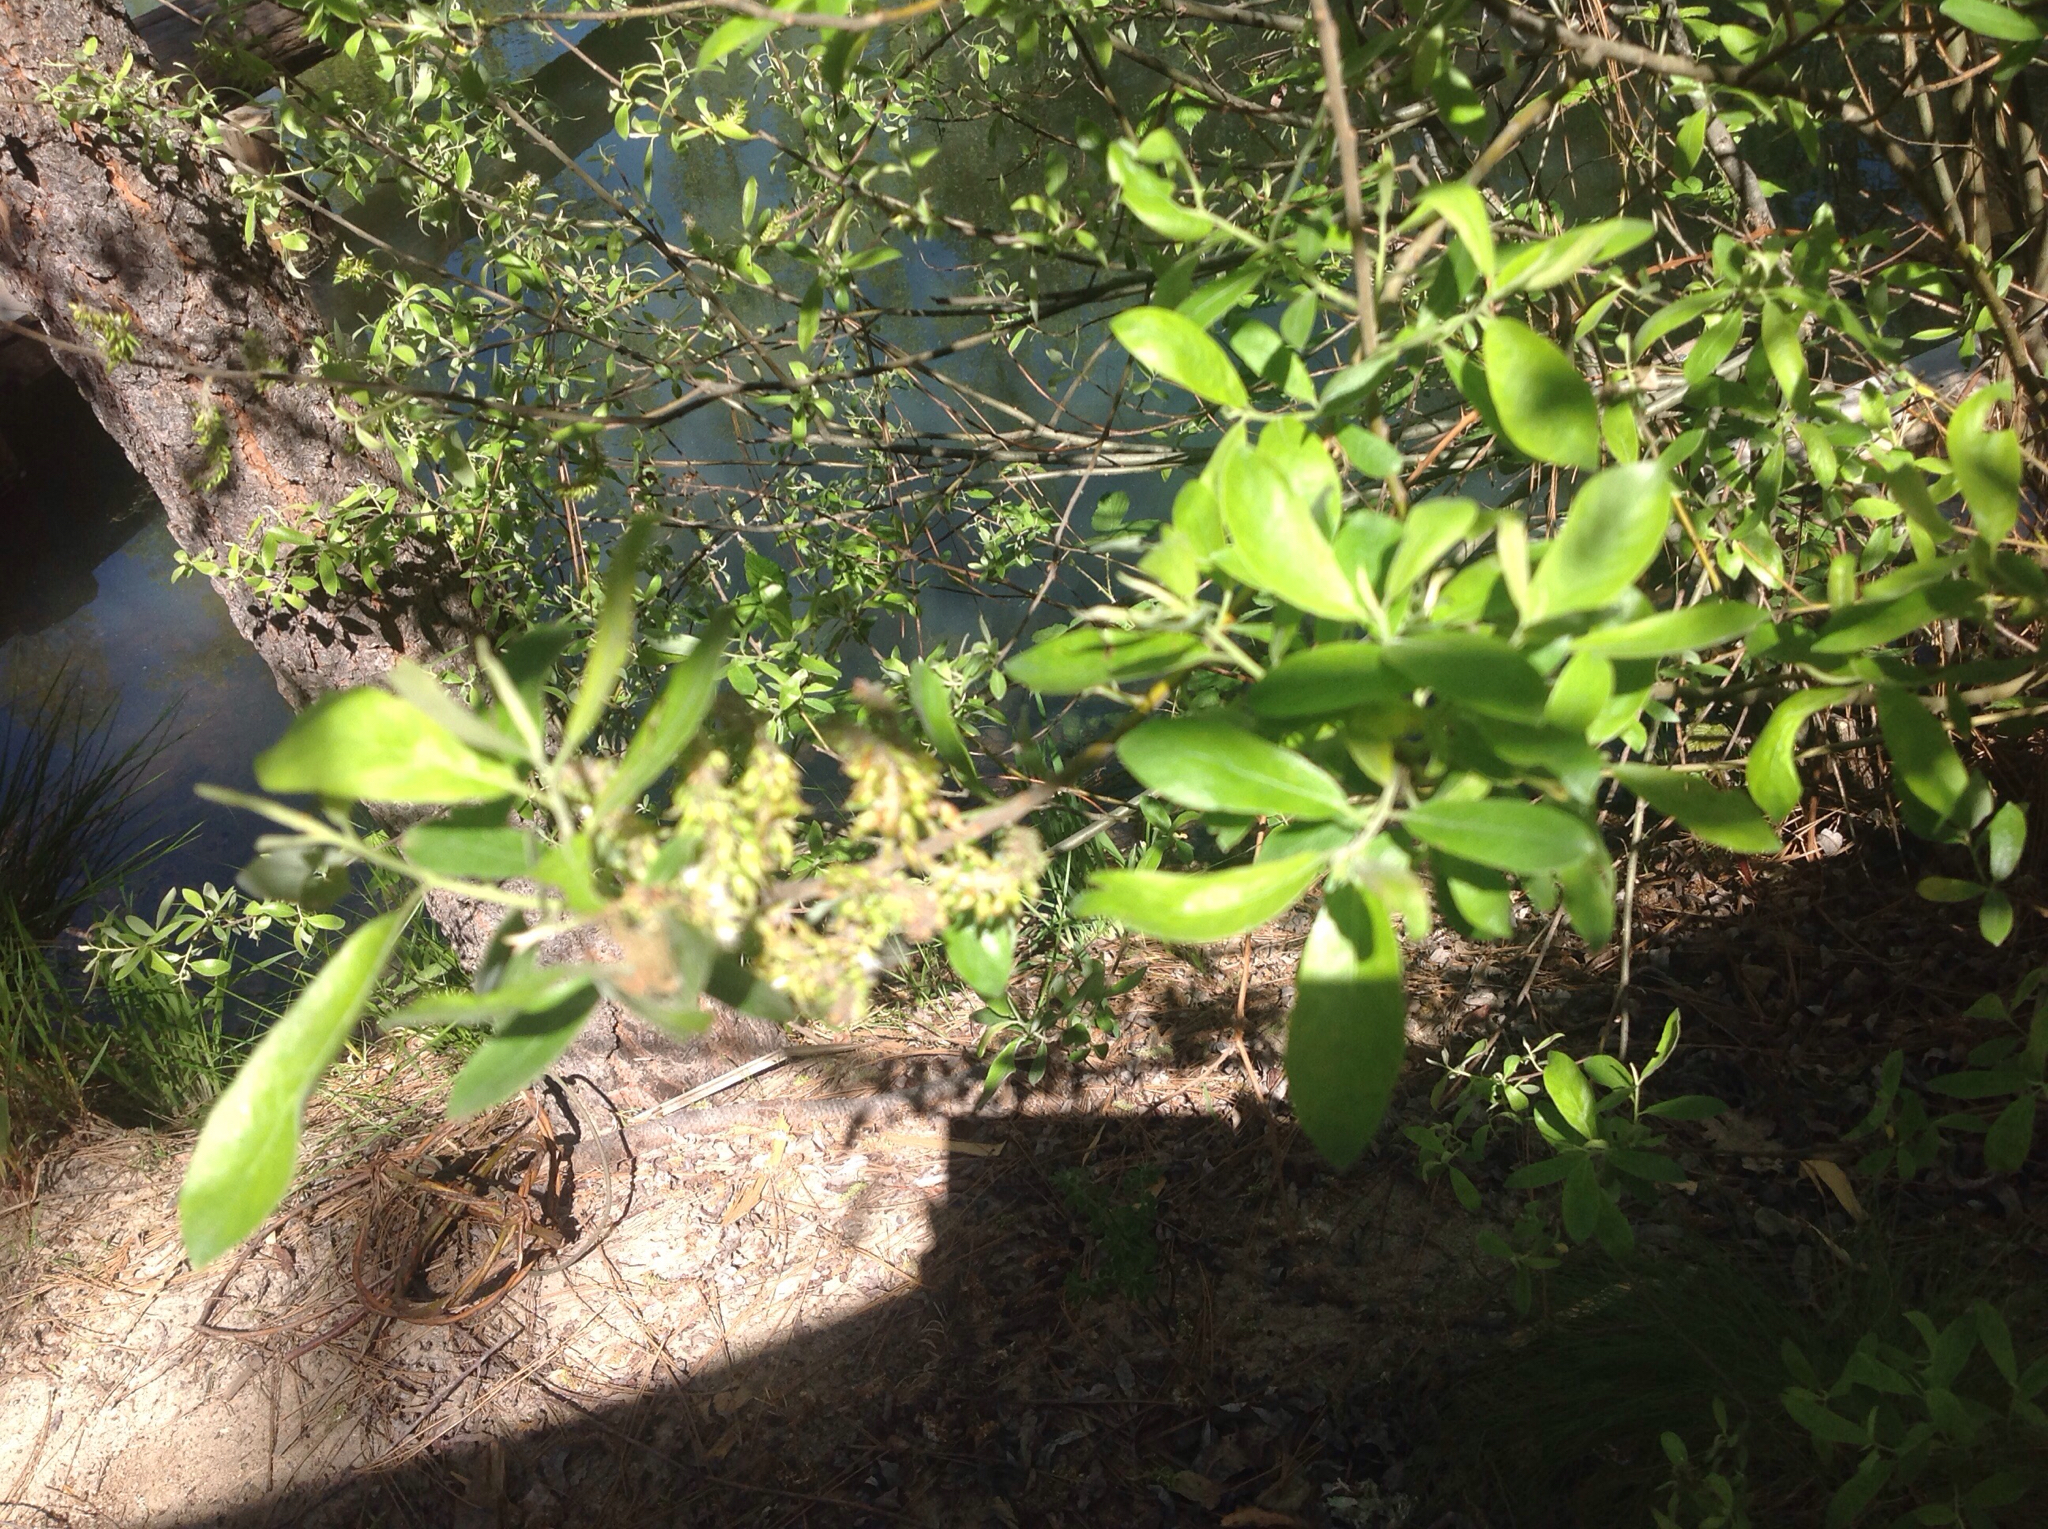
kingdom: Plantae
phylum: Tracheophyta
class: Magnoliopsida
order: Malpighiales
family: Salicaceae
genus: Salix
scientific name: Salix lasiolepis
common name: Arroyo willow
